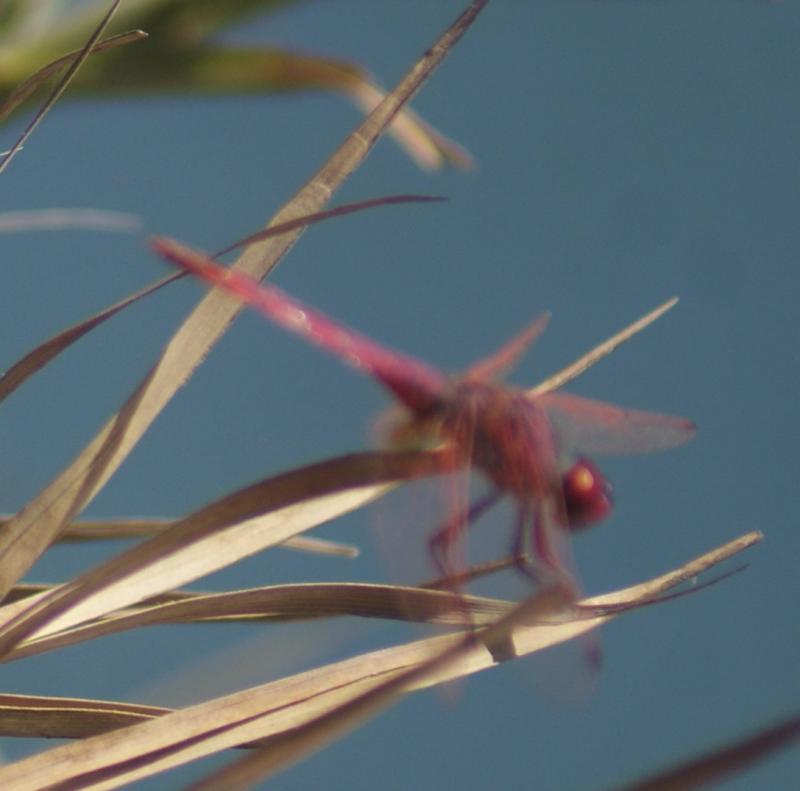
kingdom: Animalia
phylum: Arthropoda
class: Insecta
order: Odonata
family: Libellulidae
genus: Trithemis
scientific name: Trithemis annulata
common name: Violet dropwing
